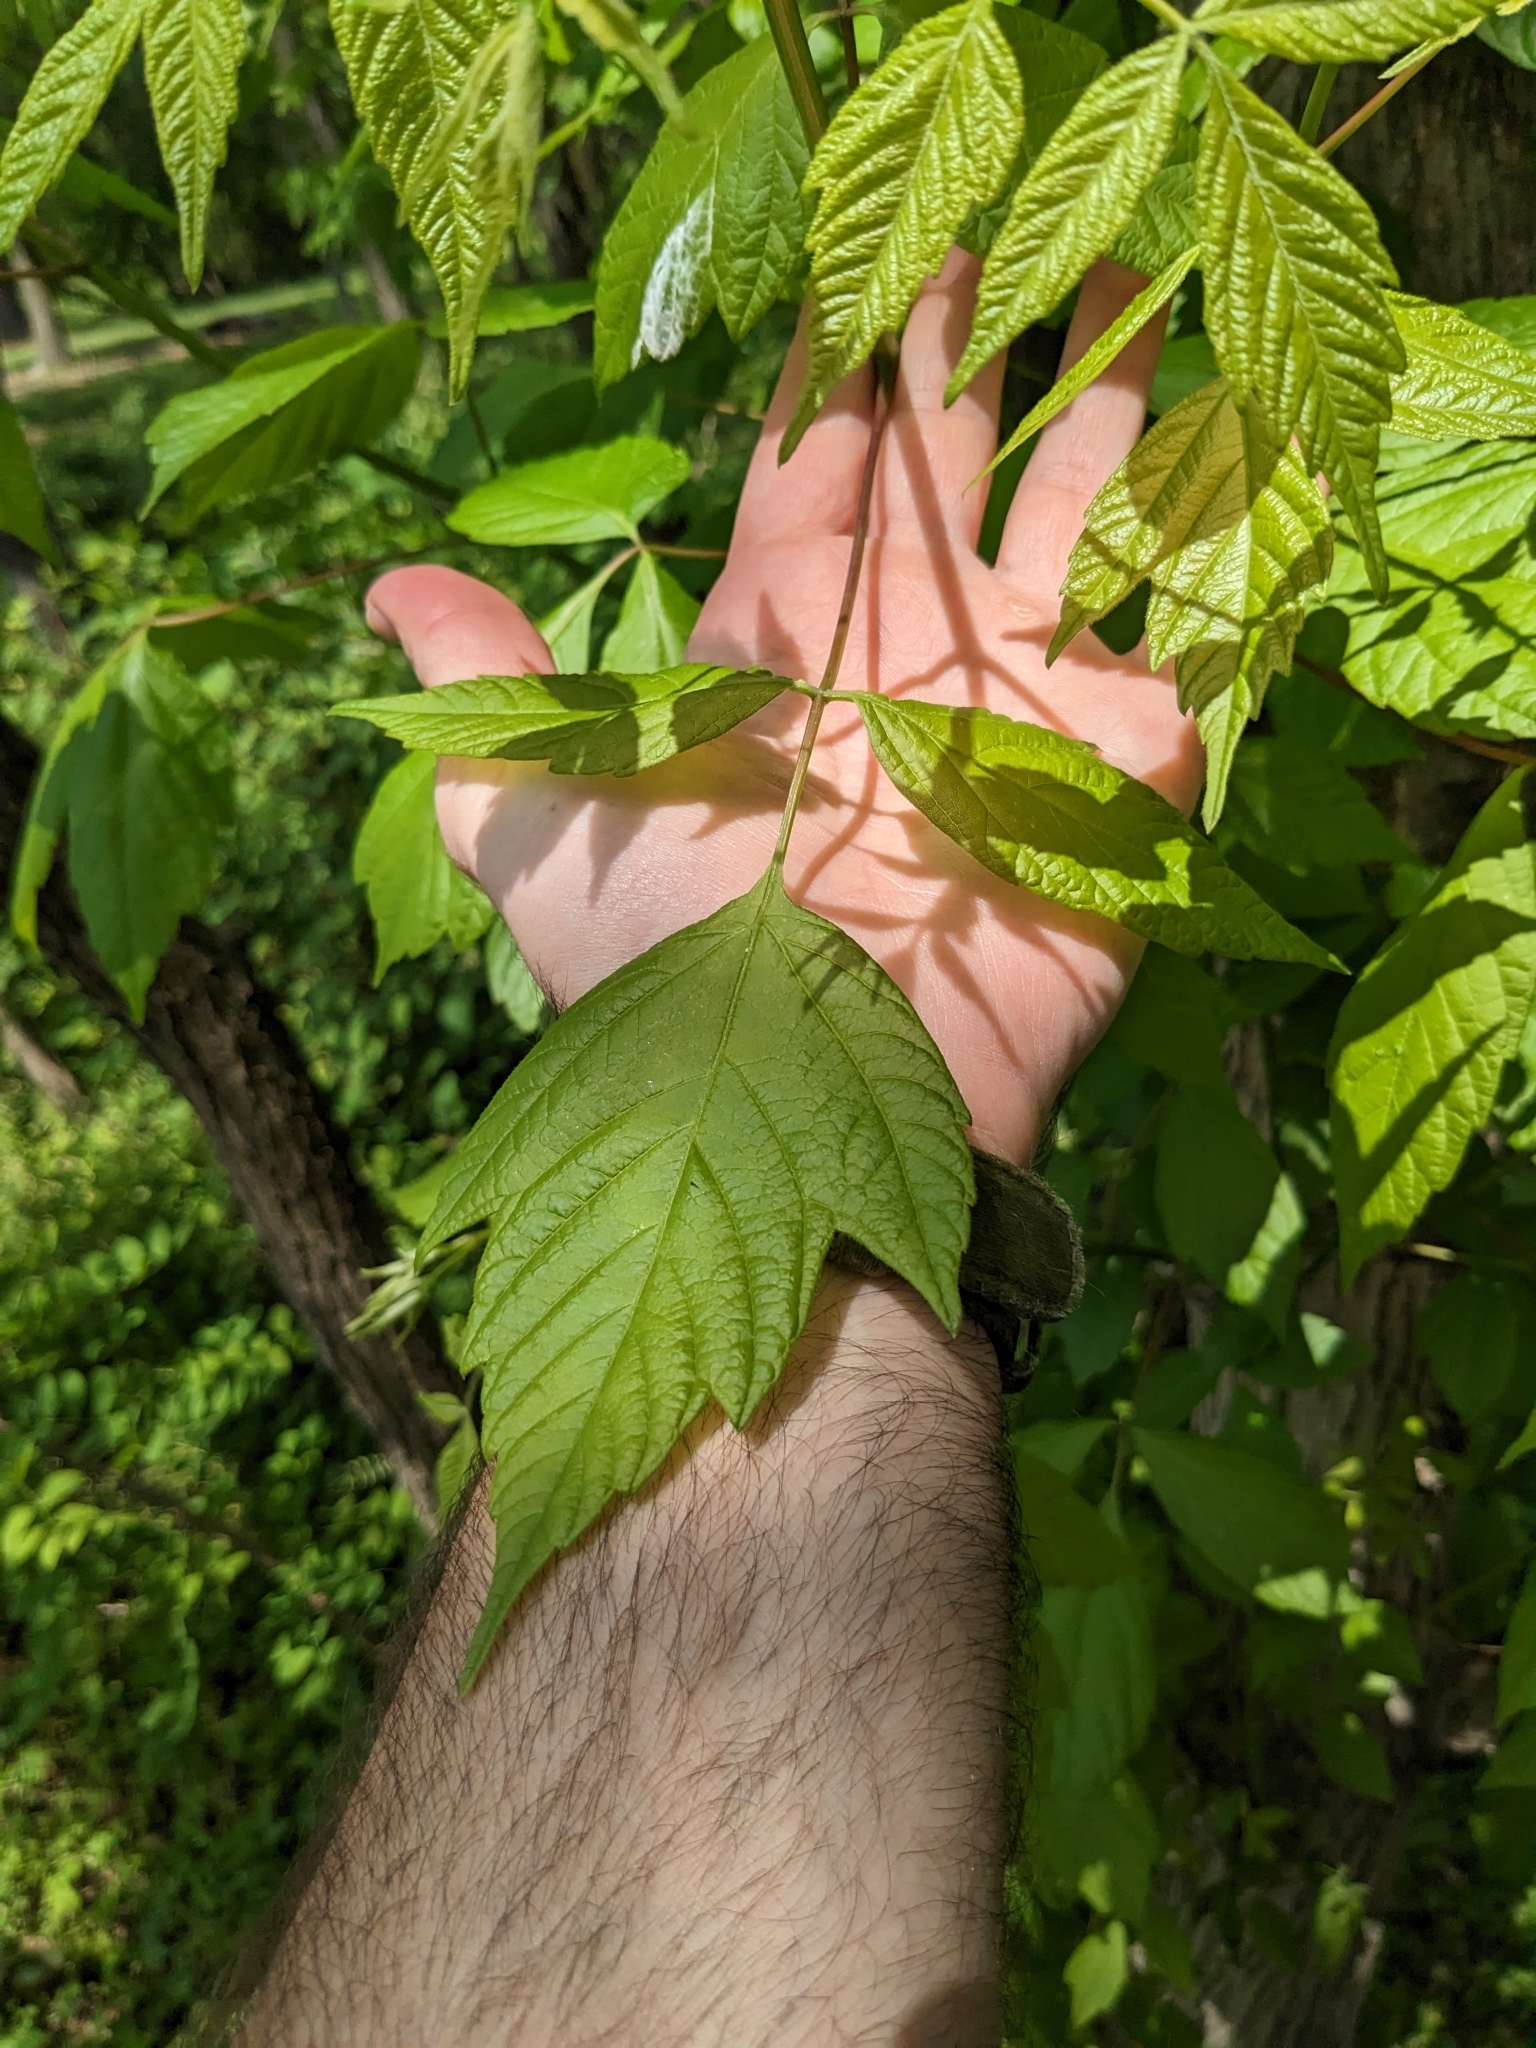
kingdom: Plantae
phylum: Tracheophyta
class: Magnoliopsida
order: Sapindales
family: Sapindaceae
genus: Acer
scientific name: Acer negundo
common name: Ashleaf maple
